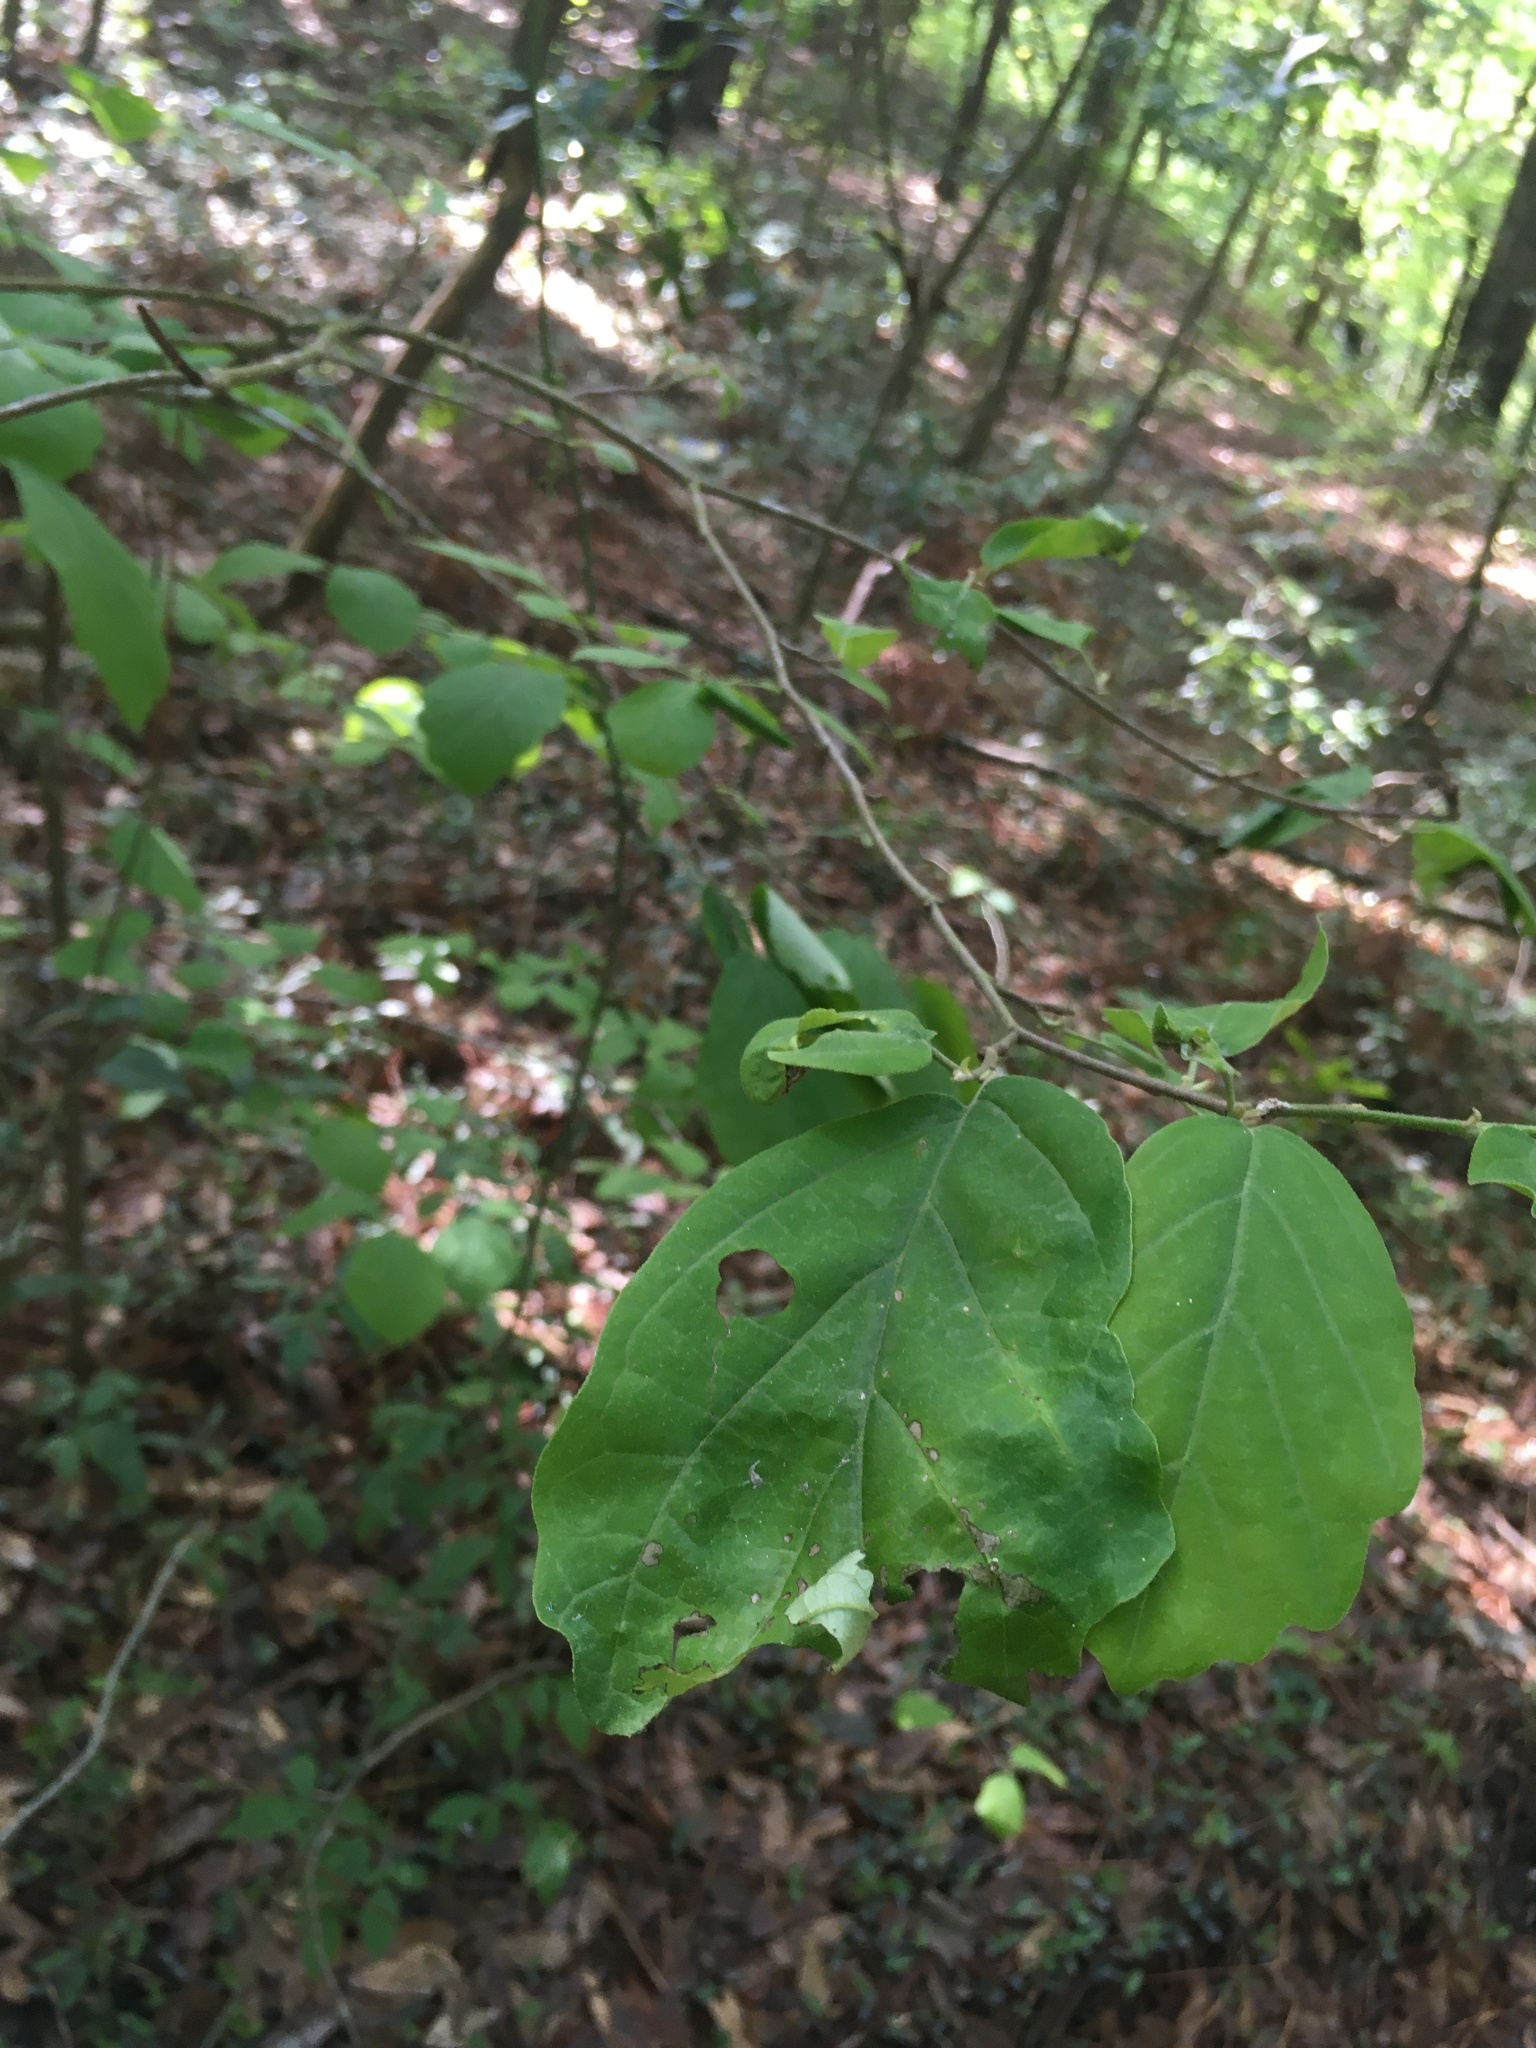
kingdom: Plantae
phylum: Tracheophyta
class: Magnoliopsida
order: Saxifragales
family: Hamamelidaceae
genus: Hamamelis
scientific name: Hamamelis virginiana
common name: Witch-hazel
